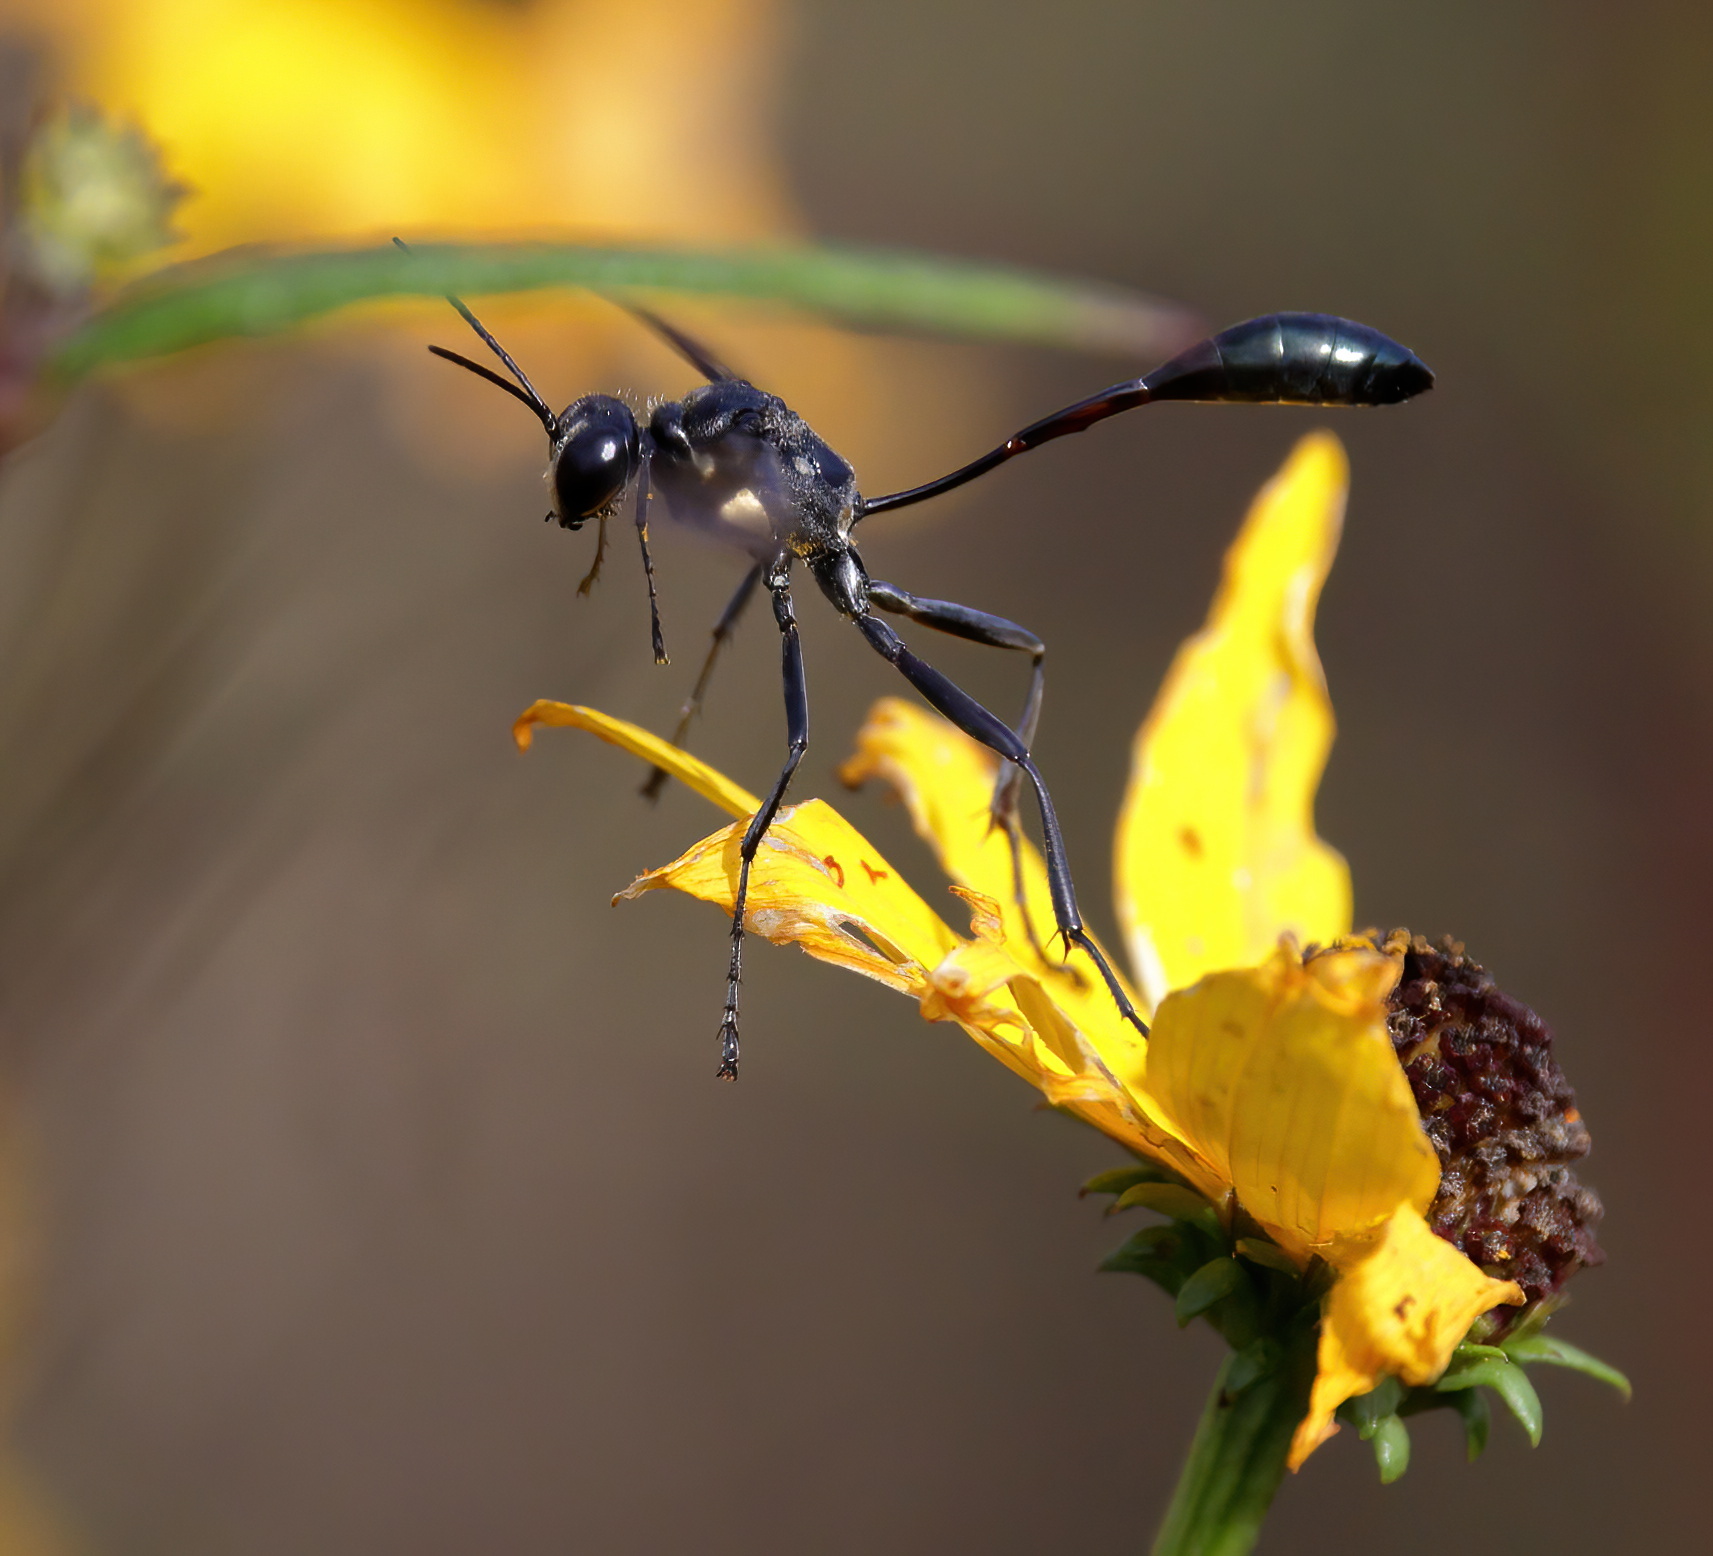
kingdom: Animalia
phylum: Arthropoda
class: Insecta
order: Hymenoptera
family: Sphecidae
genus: Eremnophila
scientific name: Eremnophila aureonotata
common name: Gold-marked thread-waisted wasp
